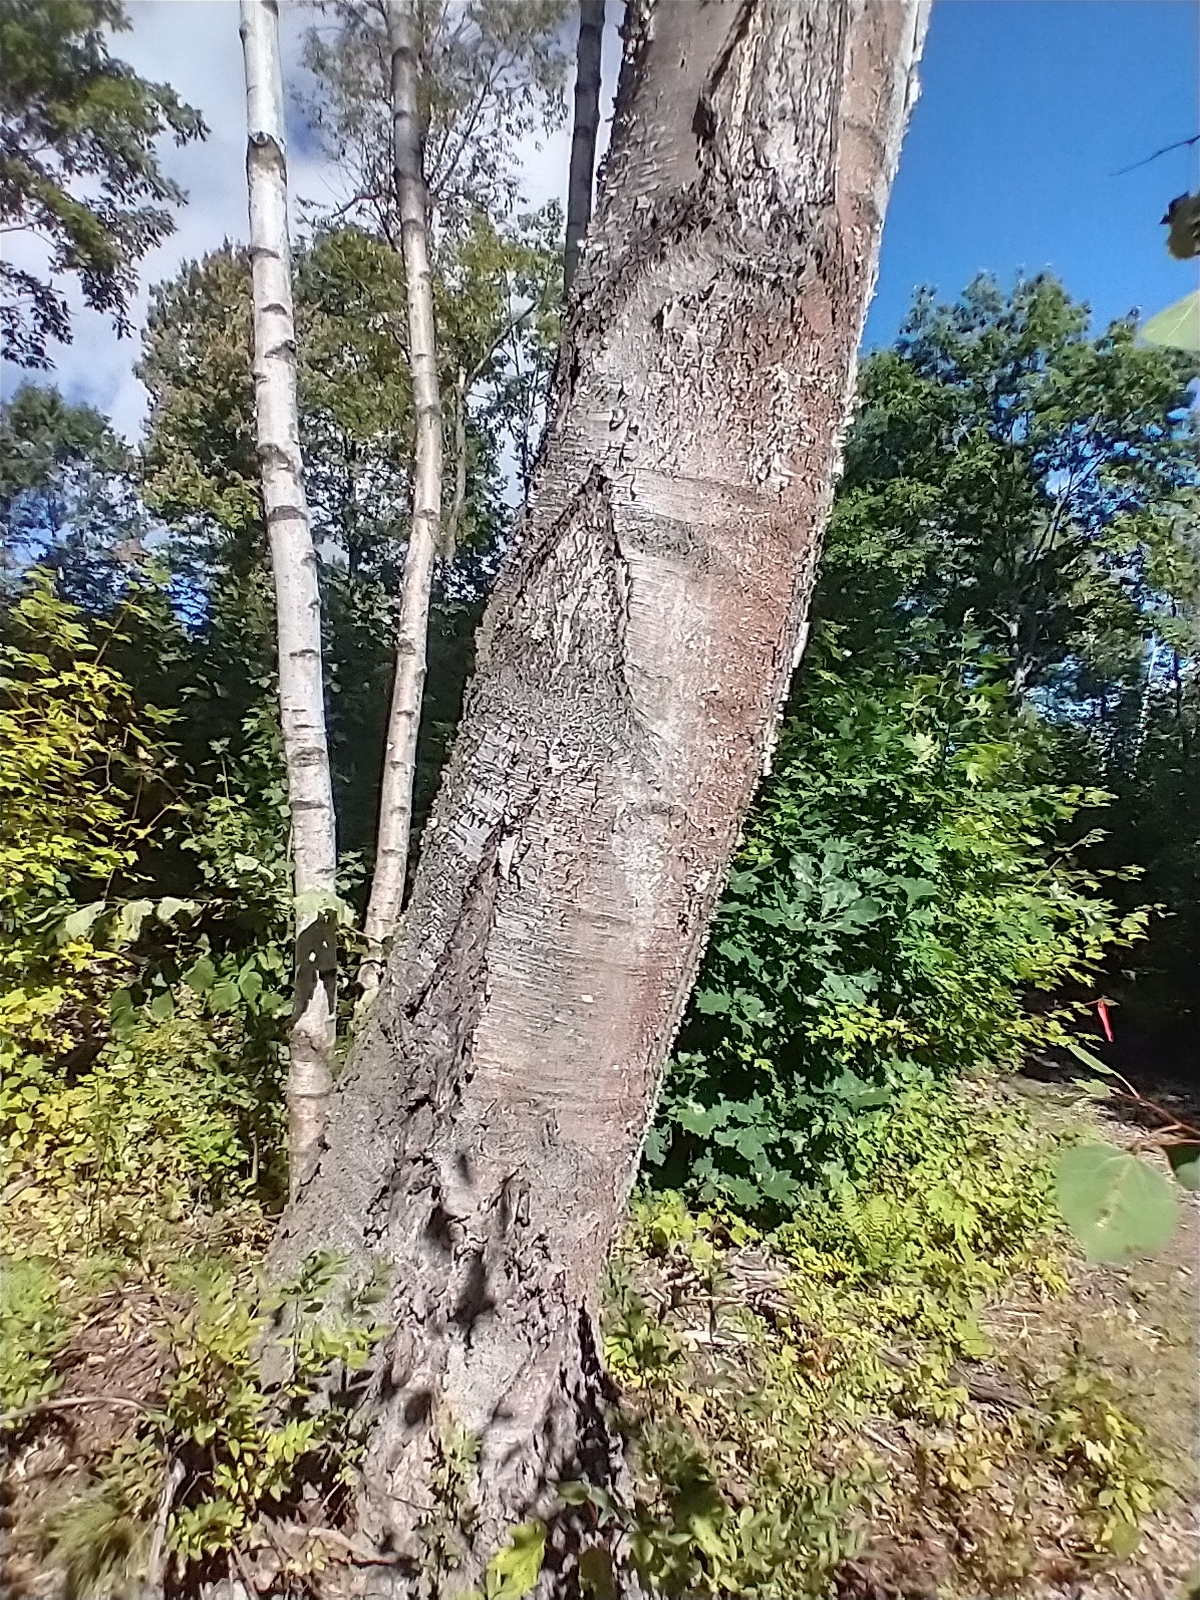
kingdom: Plantae
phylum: Tracheophyta
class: Magnoliopsida
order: Fagales
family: Betulaceae
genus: Betula
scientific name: Betula papyrifera
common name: Paper birch
